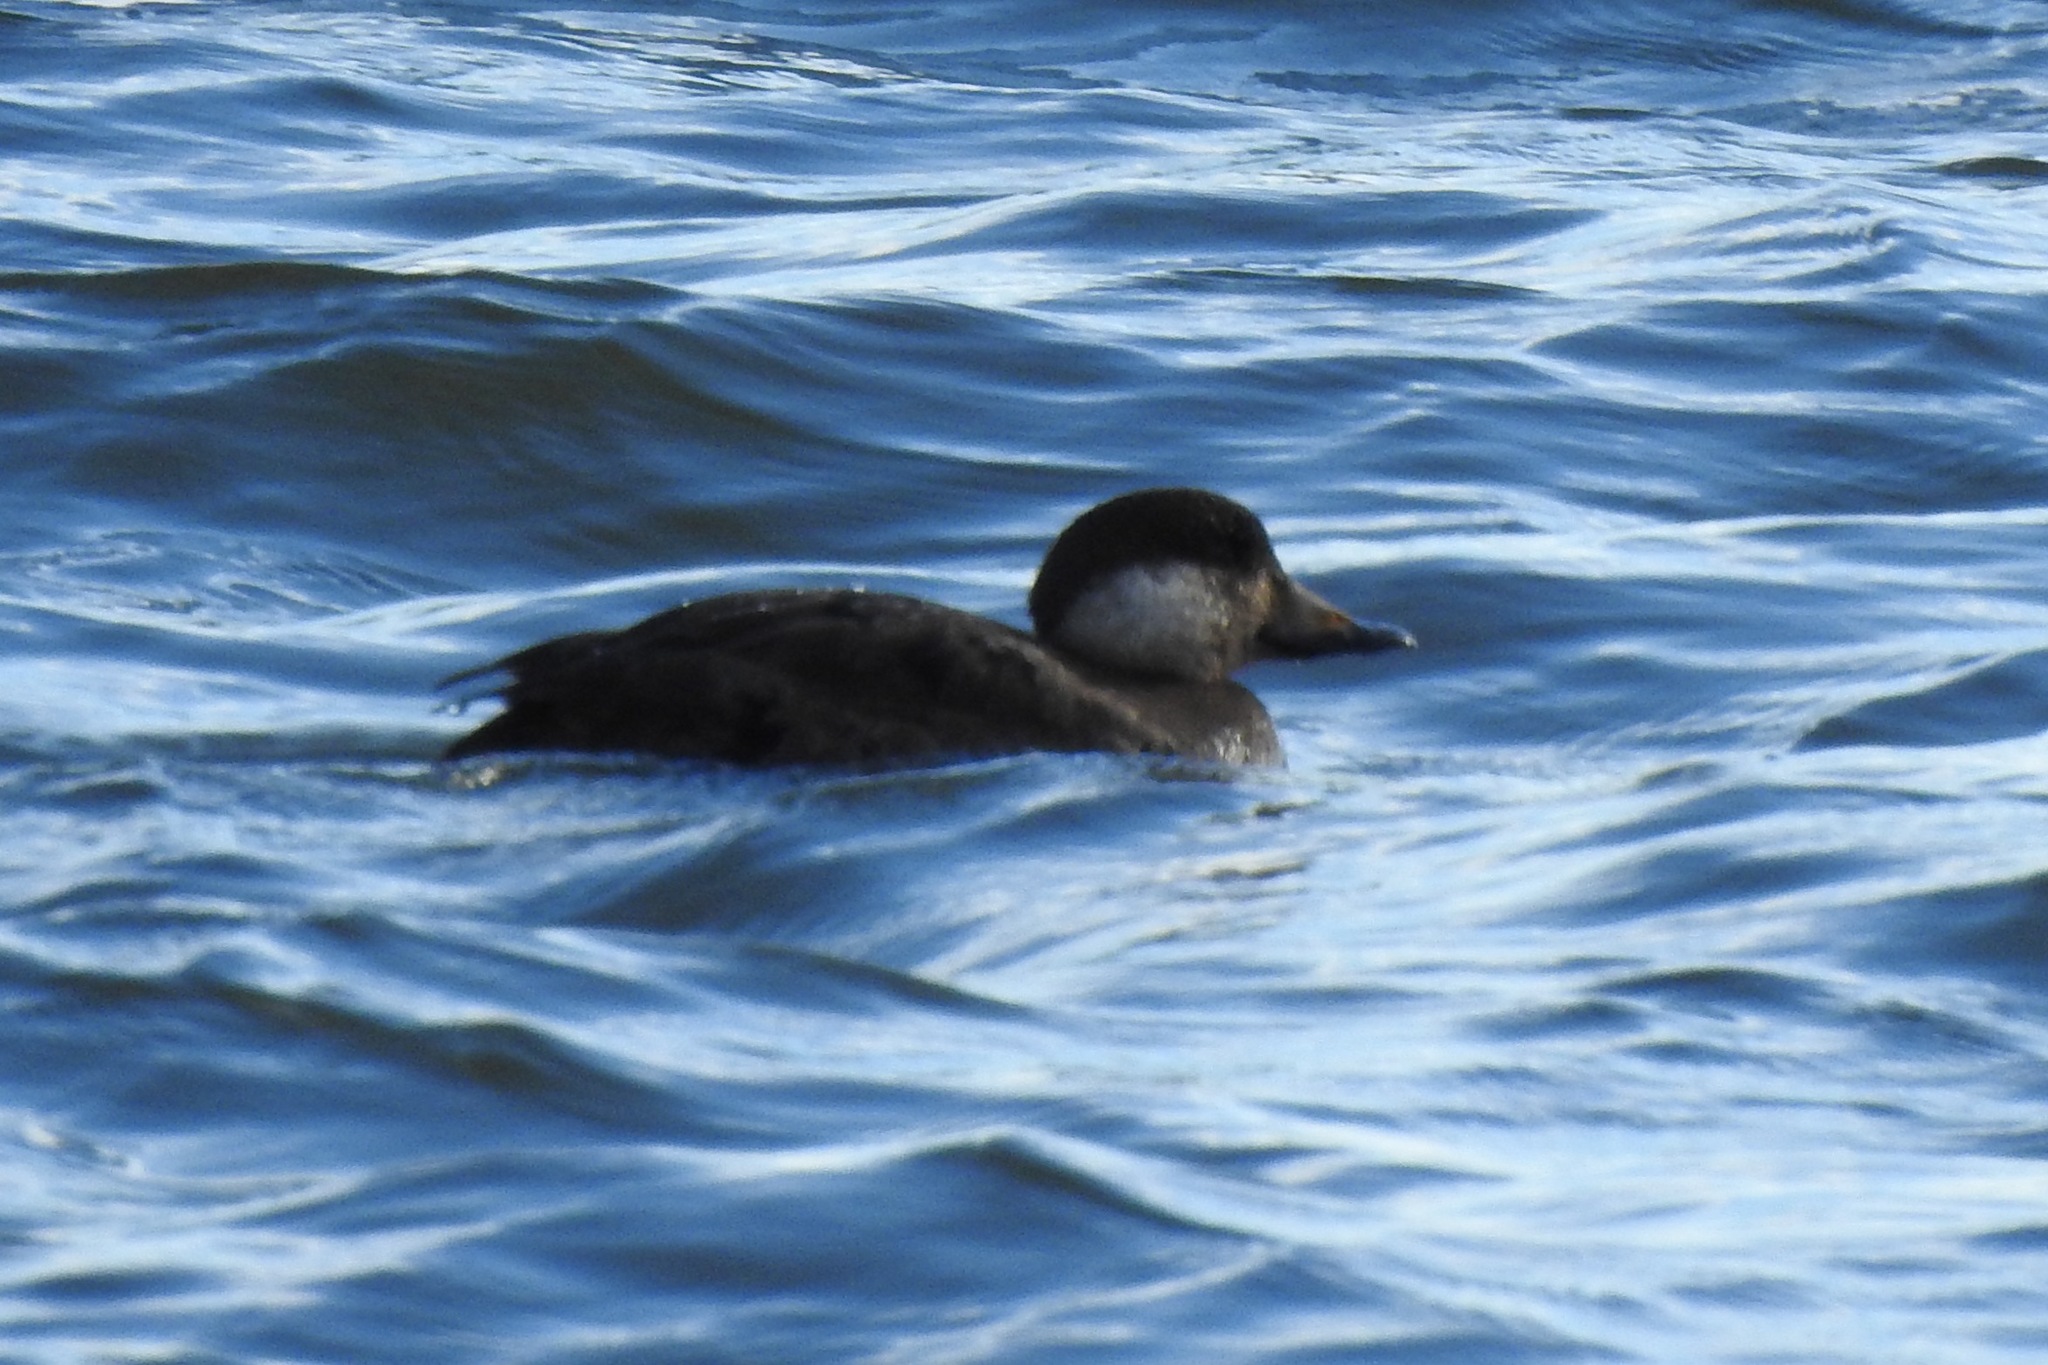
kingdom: Animalia
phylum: Chordata
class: Aves
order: Anseriformes
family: Anatidae
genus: Melanitta
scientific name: Melanitta americana
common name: Black scoter
